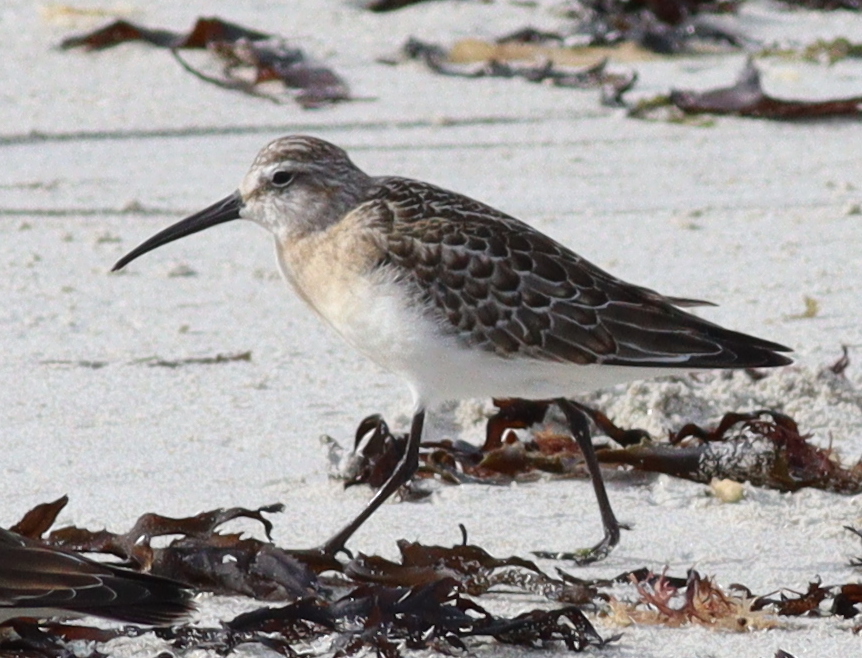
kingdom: Animalia
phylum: Chordata
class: Aves
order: Charadriiformes
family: Scolopacidae
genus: Calidris
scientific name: Calidris ferruginea
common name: Curlew sandpiper
